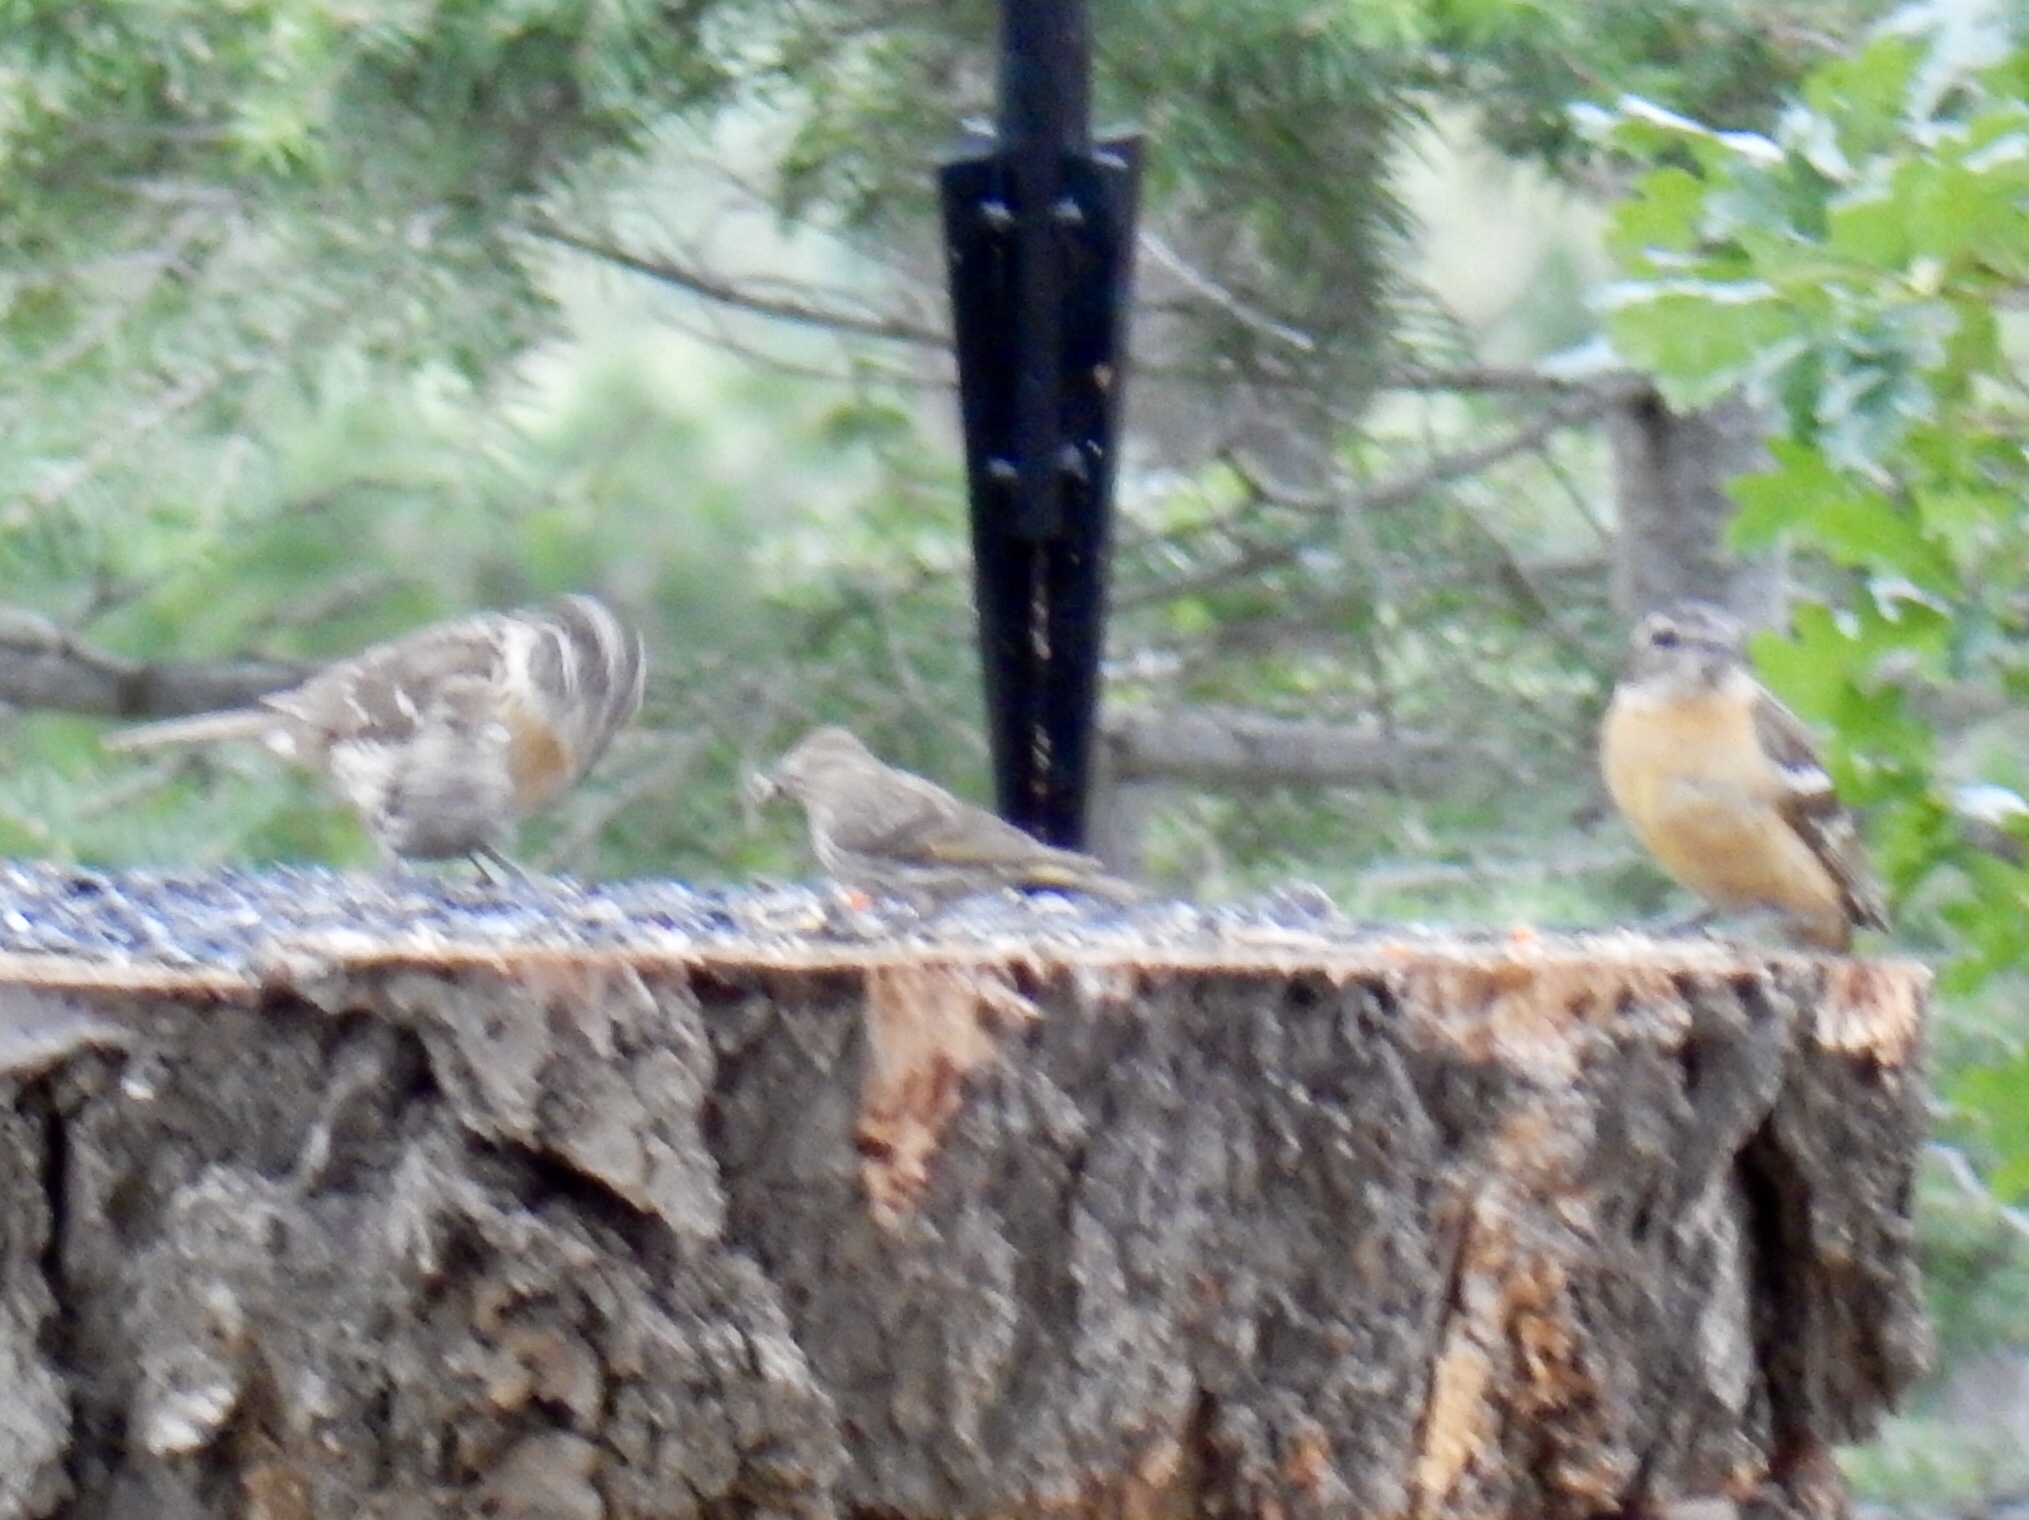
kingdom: Animalia
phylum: Chordata
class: Aves
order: Passeriformes
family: Cardinalidae
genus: Pheucticus
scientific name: Pheucticus melanocephalus
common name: Black-headed grosbeak
